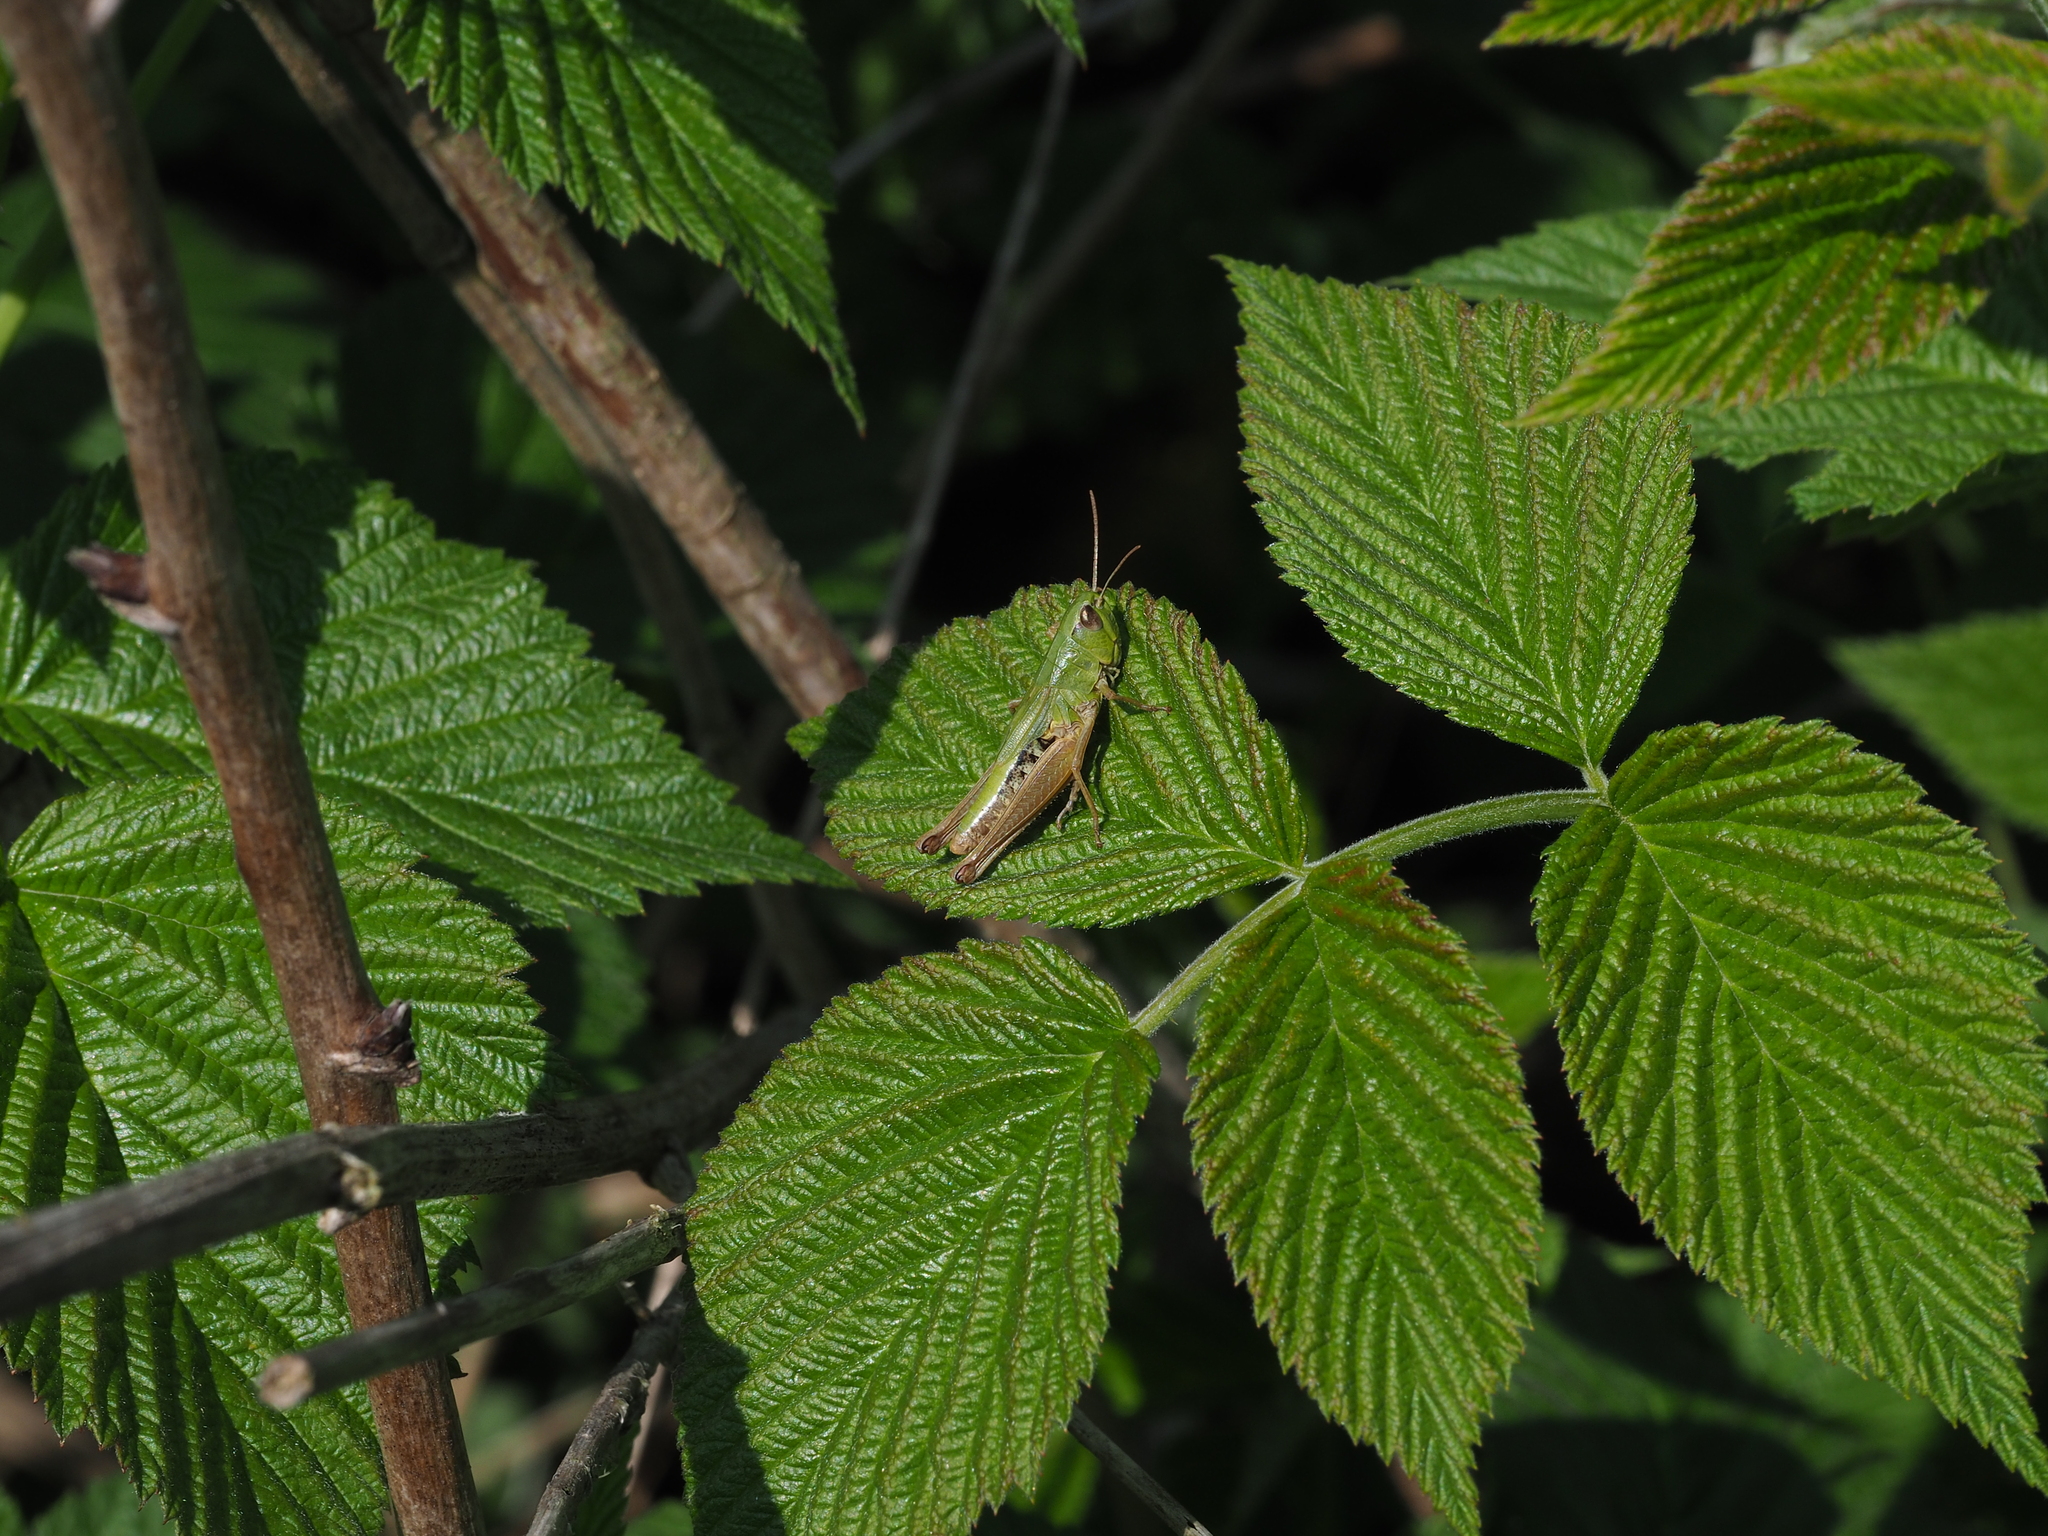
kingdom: Animalia
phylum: Arthropoda
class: Insecta
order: Orthoptera
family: Acrididae
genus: Pseudochorthippus
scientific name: Pseudochorthippus parallelus
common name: Meadow grasshopper
